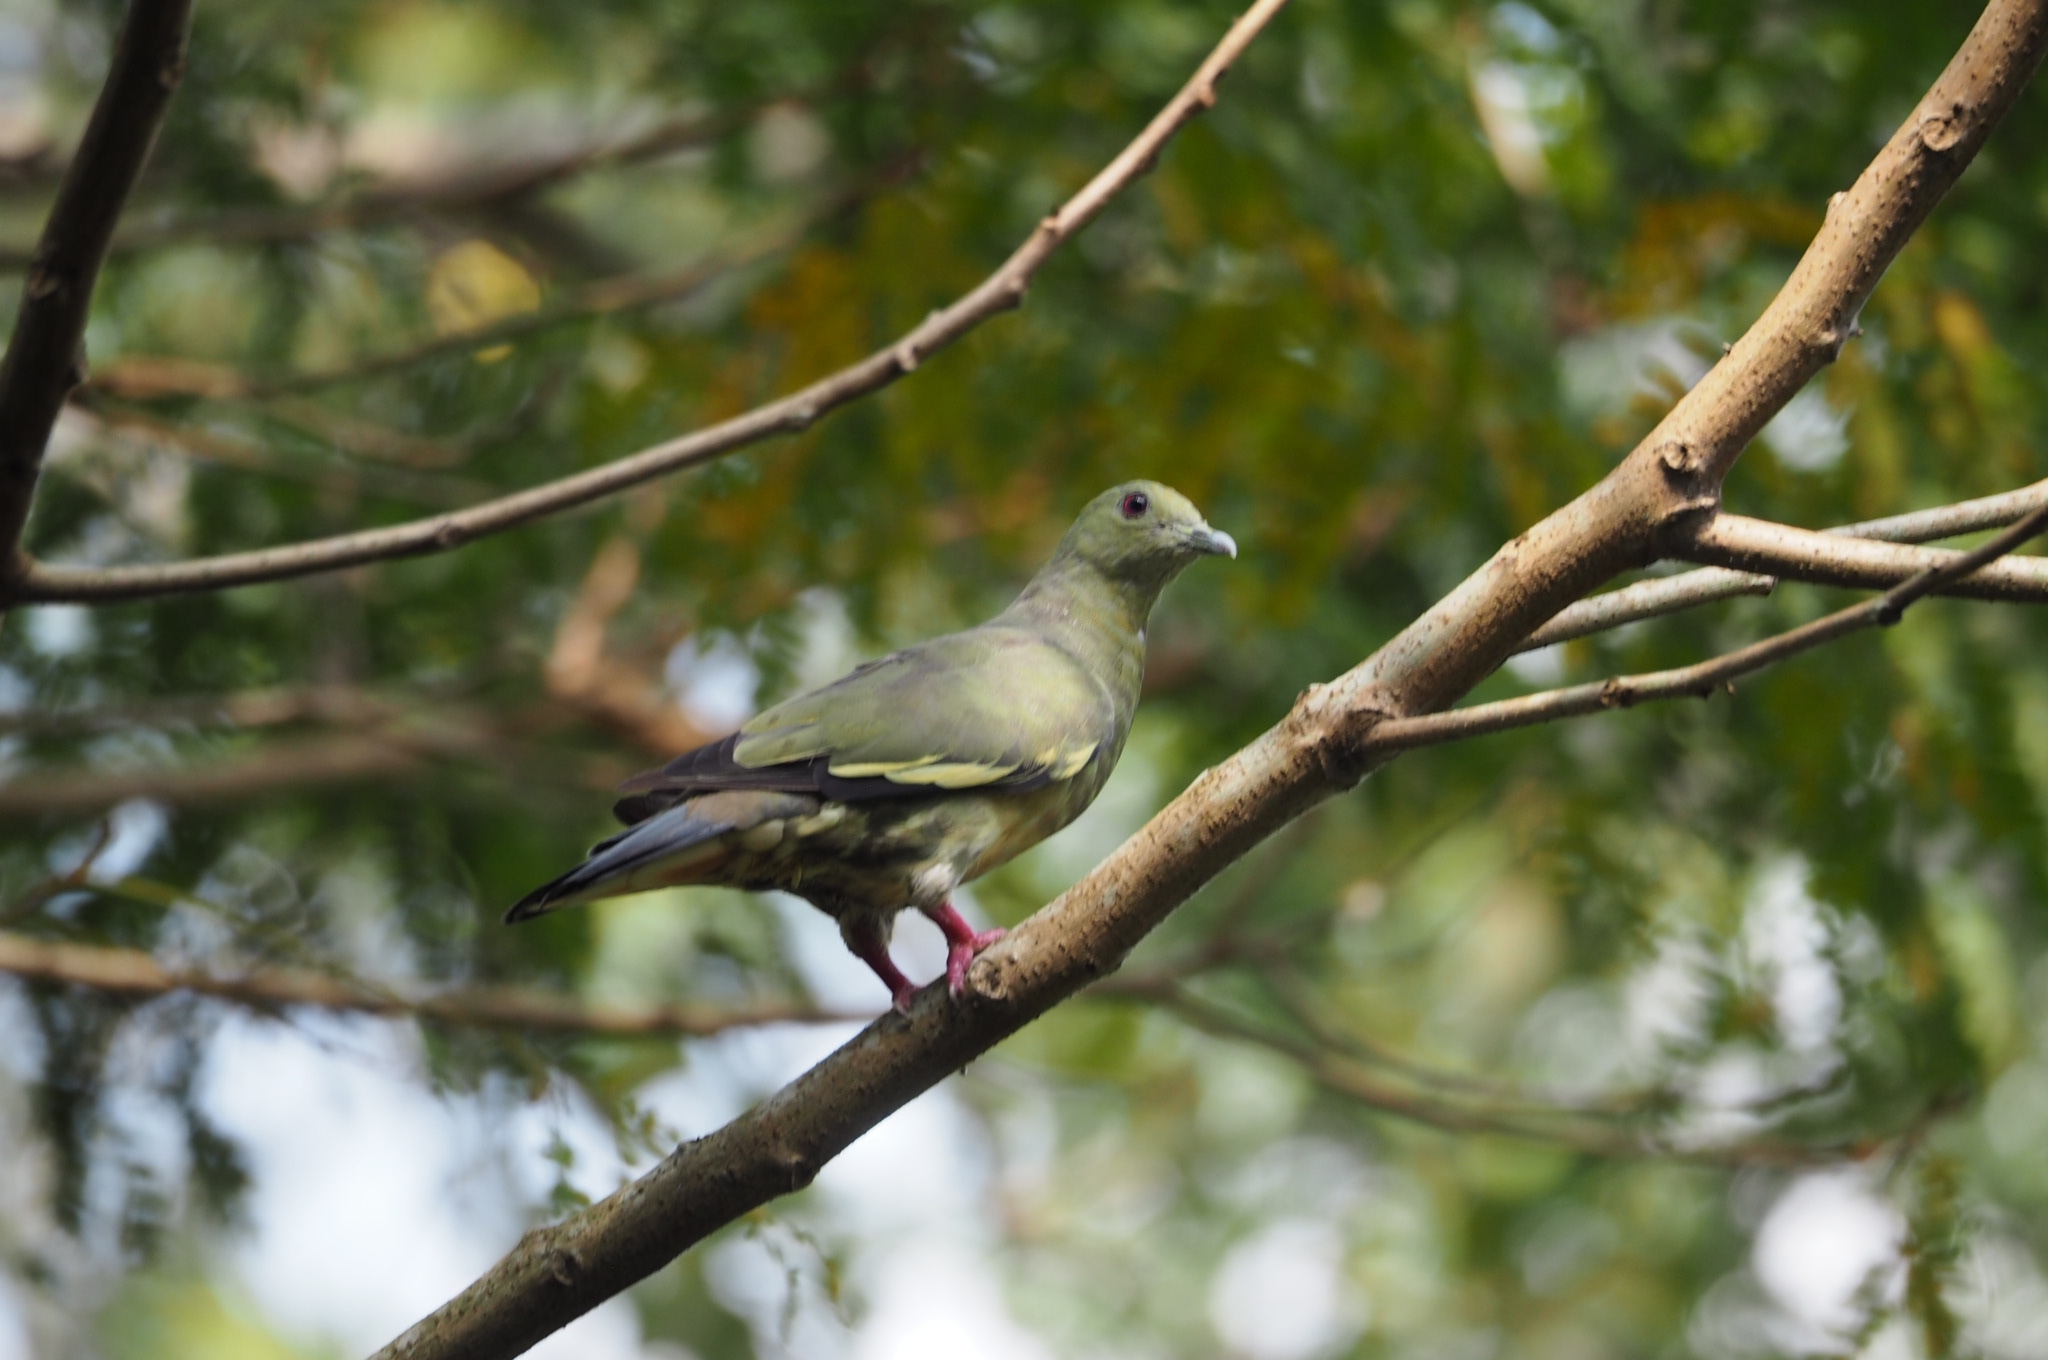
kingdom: Animalia
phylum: Chordata
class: Aves
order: Columbiformes
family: Columbidae
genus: Treron
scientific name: Treron vernans
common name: Pink-necked green pigeon
